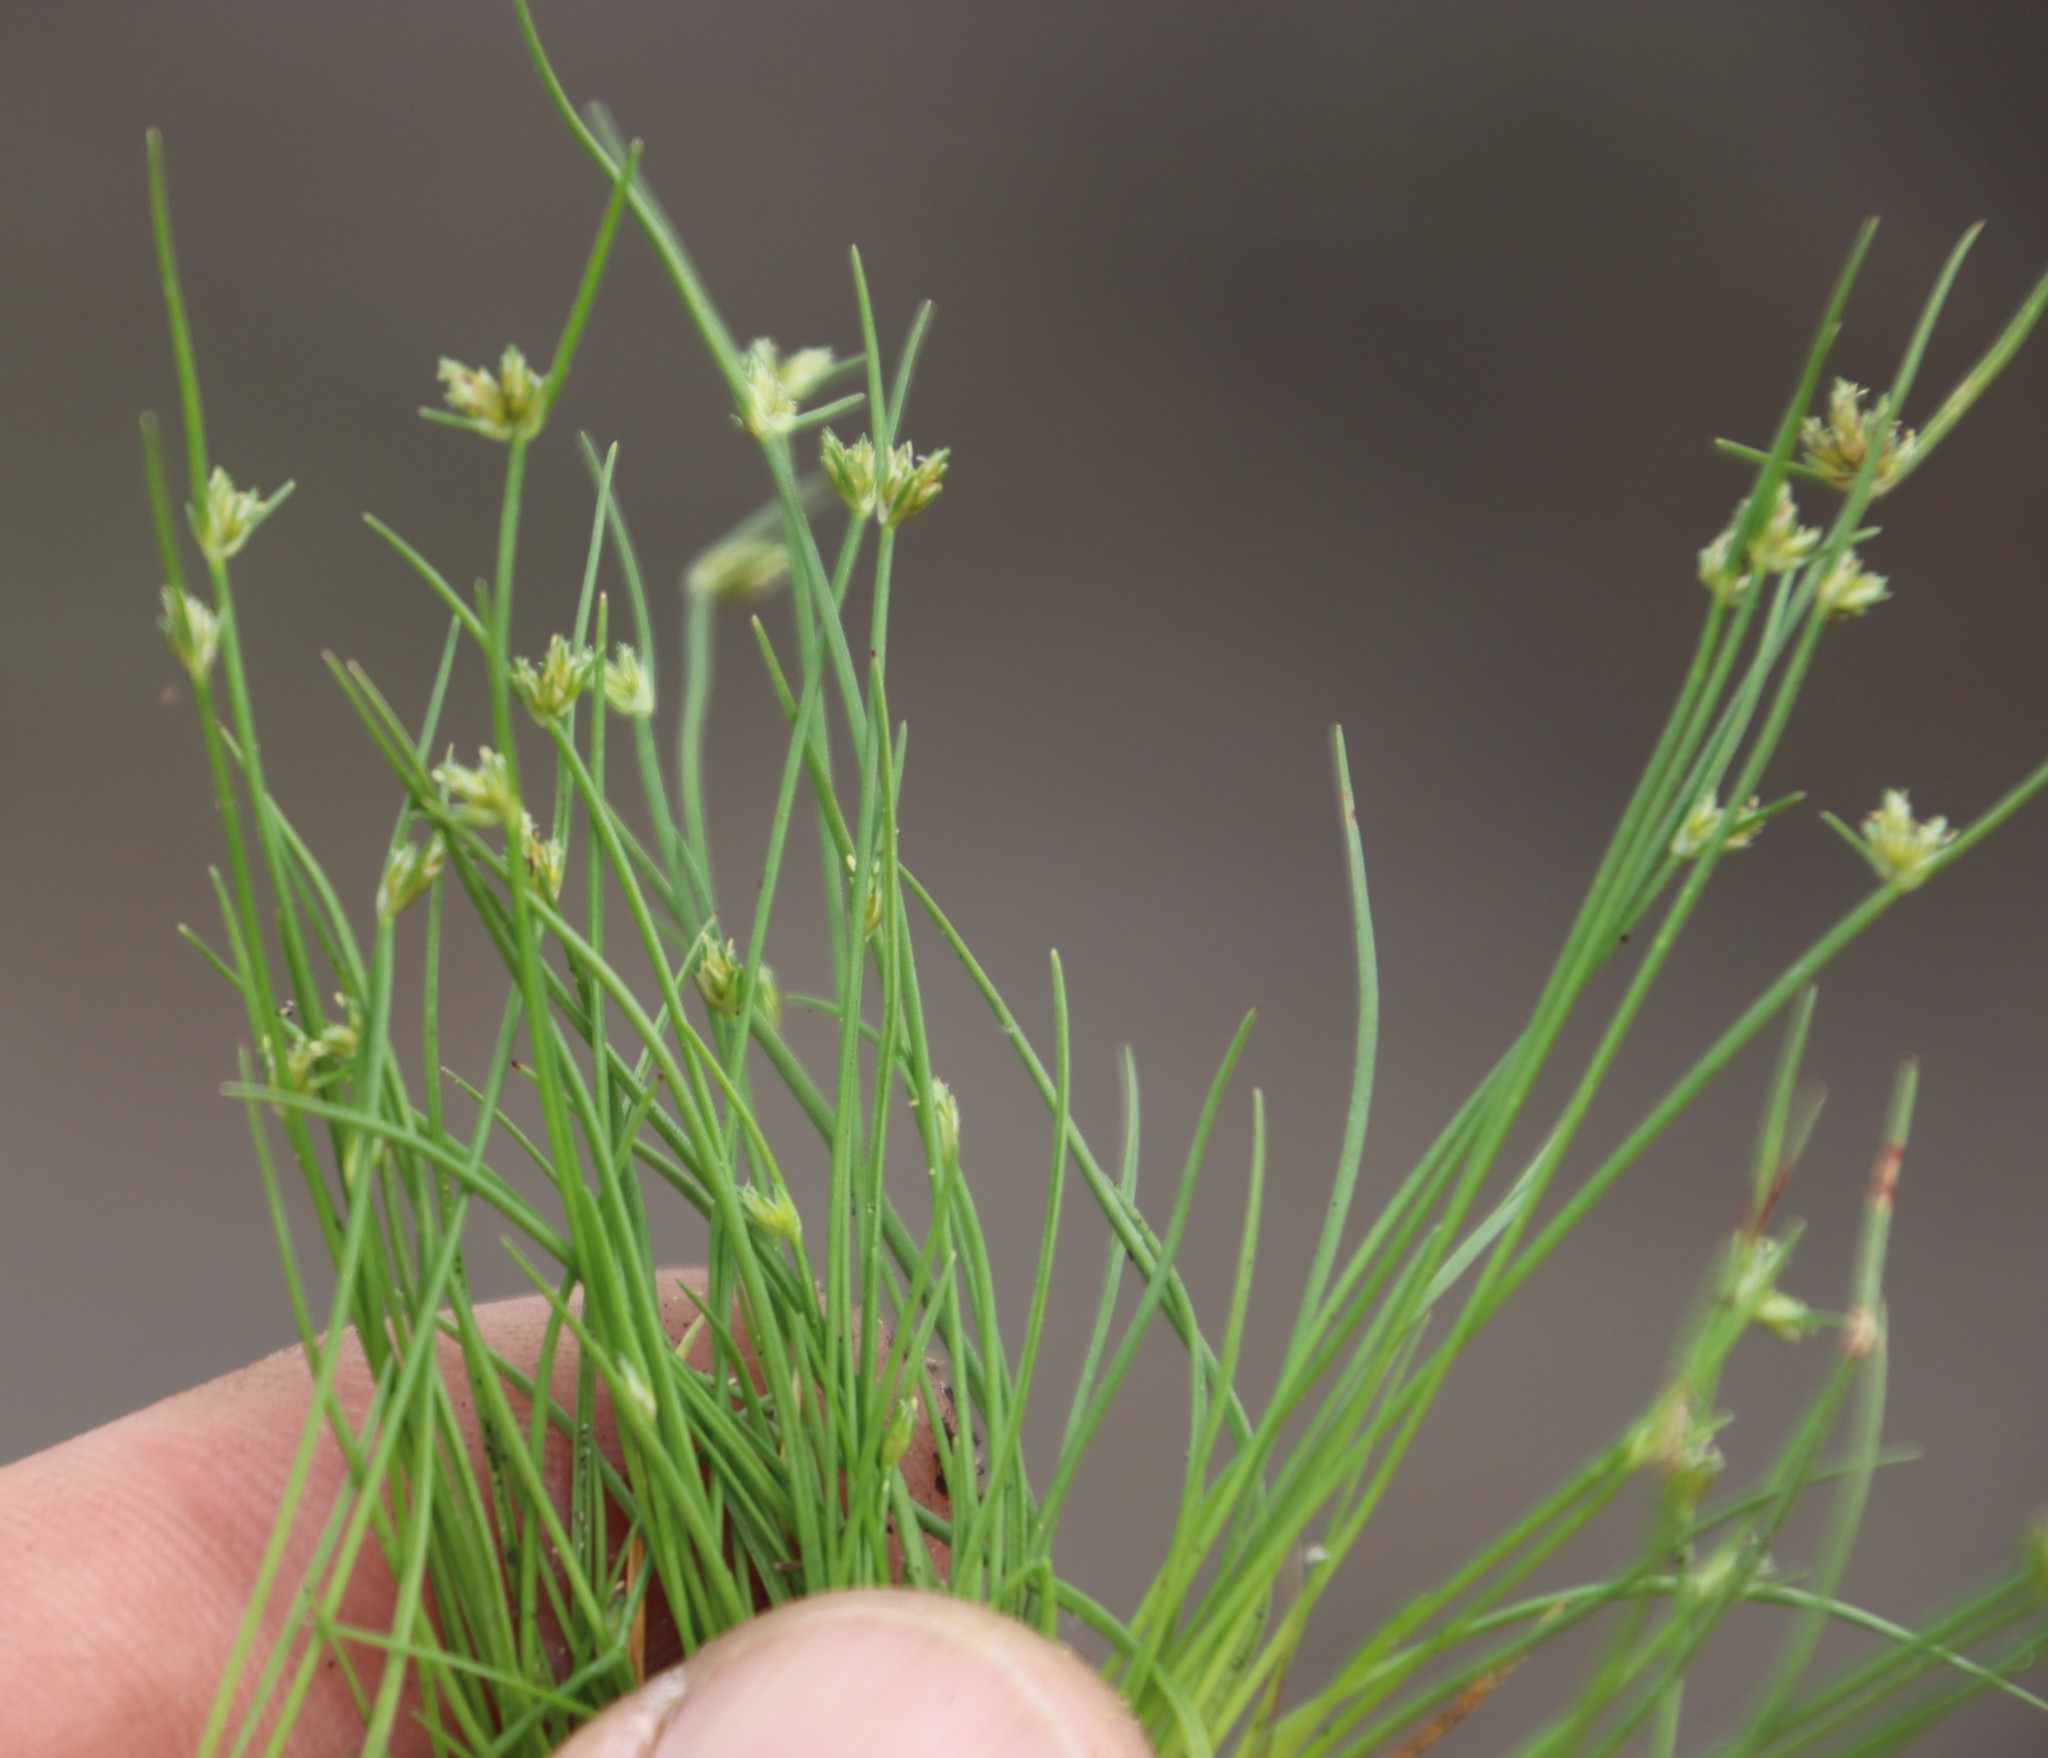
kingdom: Plantae
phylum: Tracheophyta
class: Liliopsida
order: Poales
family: Cyperaceae
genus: Isolepis
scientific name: Isolepis marginata
